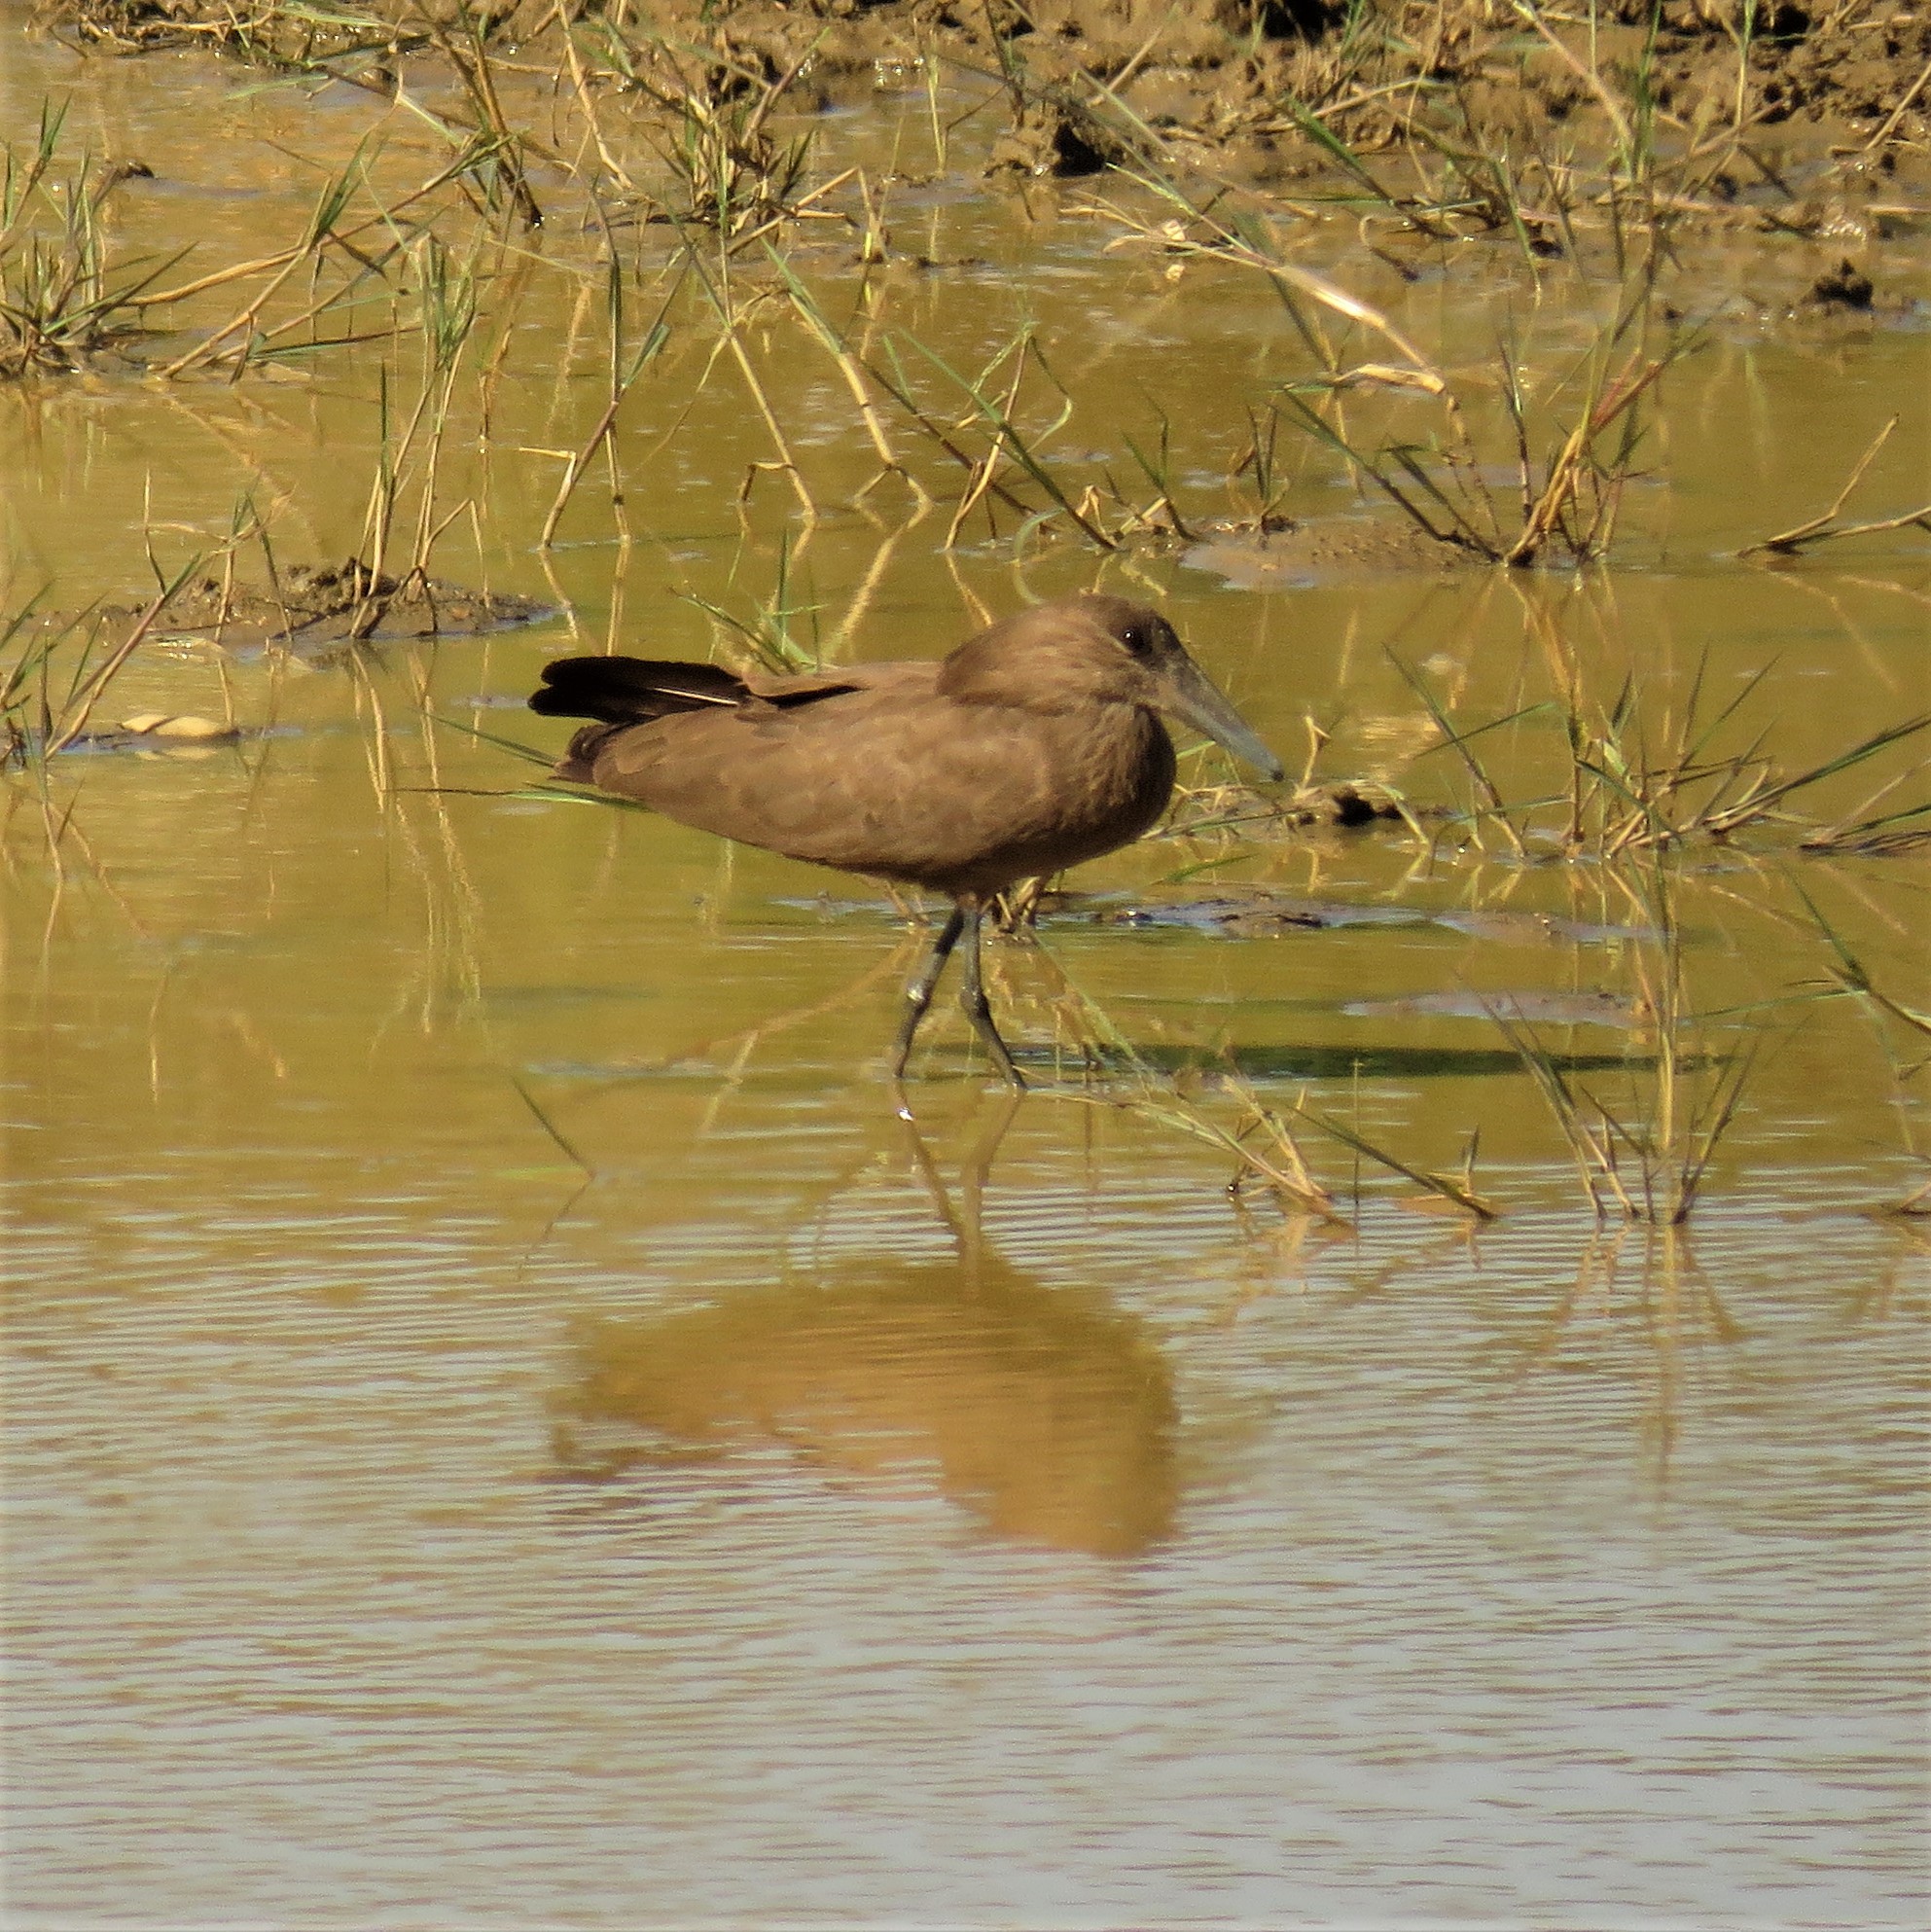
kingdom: Animalia
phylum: Chordata
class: Aves
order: Pelecaniformes
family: Scopidae
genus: Scopus
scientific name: Scopus umbretta
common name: Hamerkop
